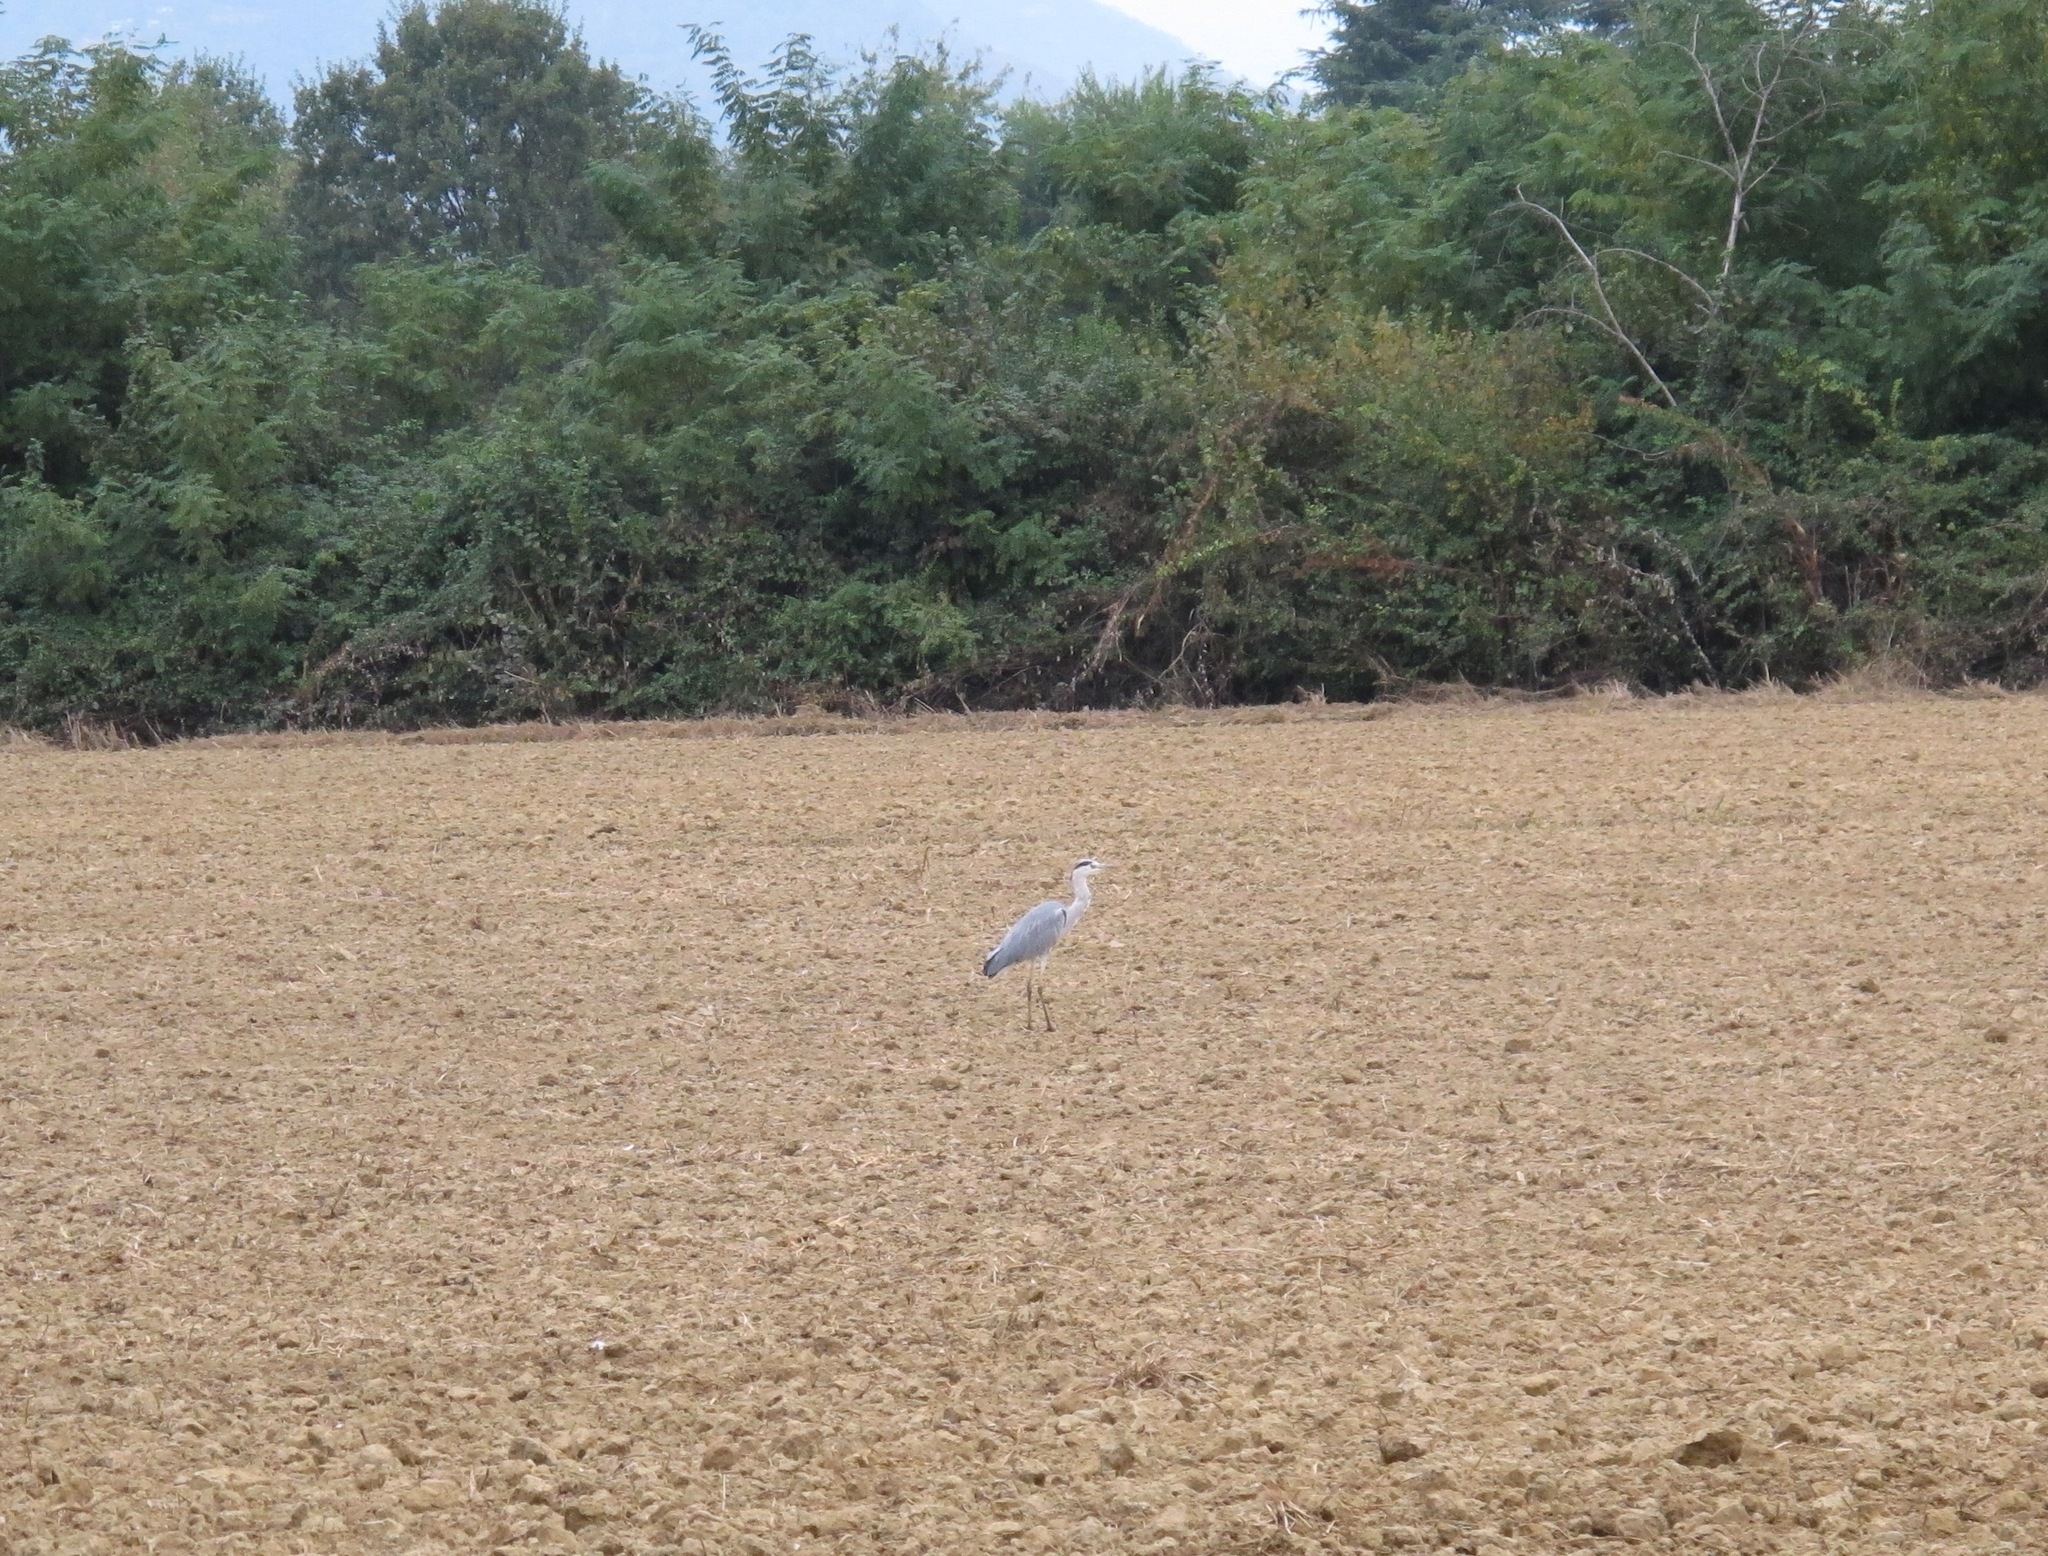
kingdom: Animalia
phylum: Chordata
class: Aves
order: Pelecaniformes
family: Ardeidae
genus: Ardea
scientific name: Ardea cinerea
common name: Grey heron
